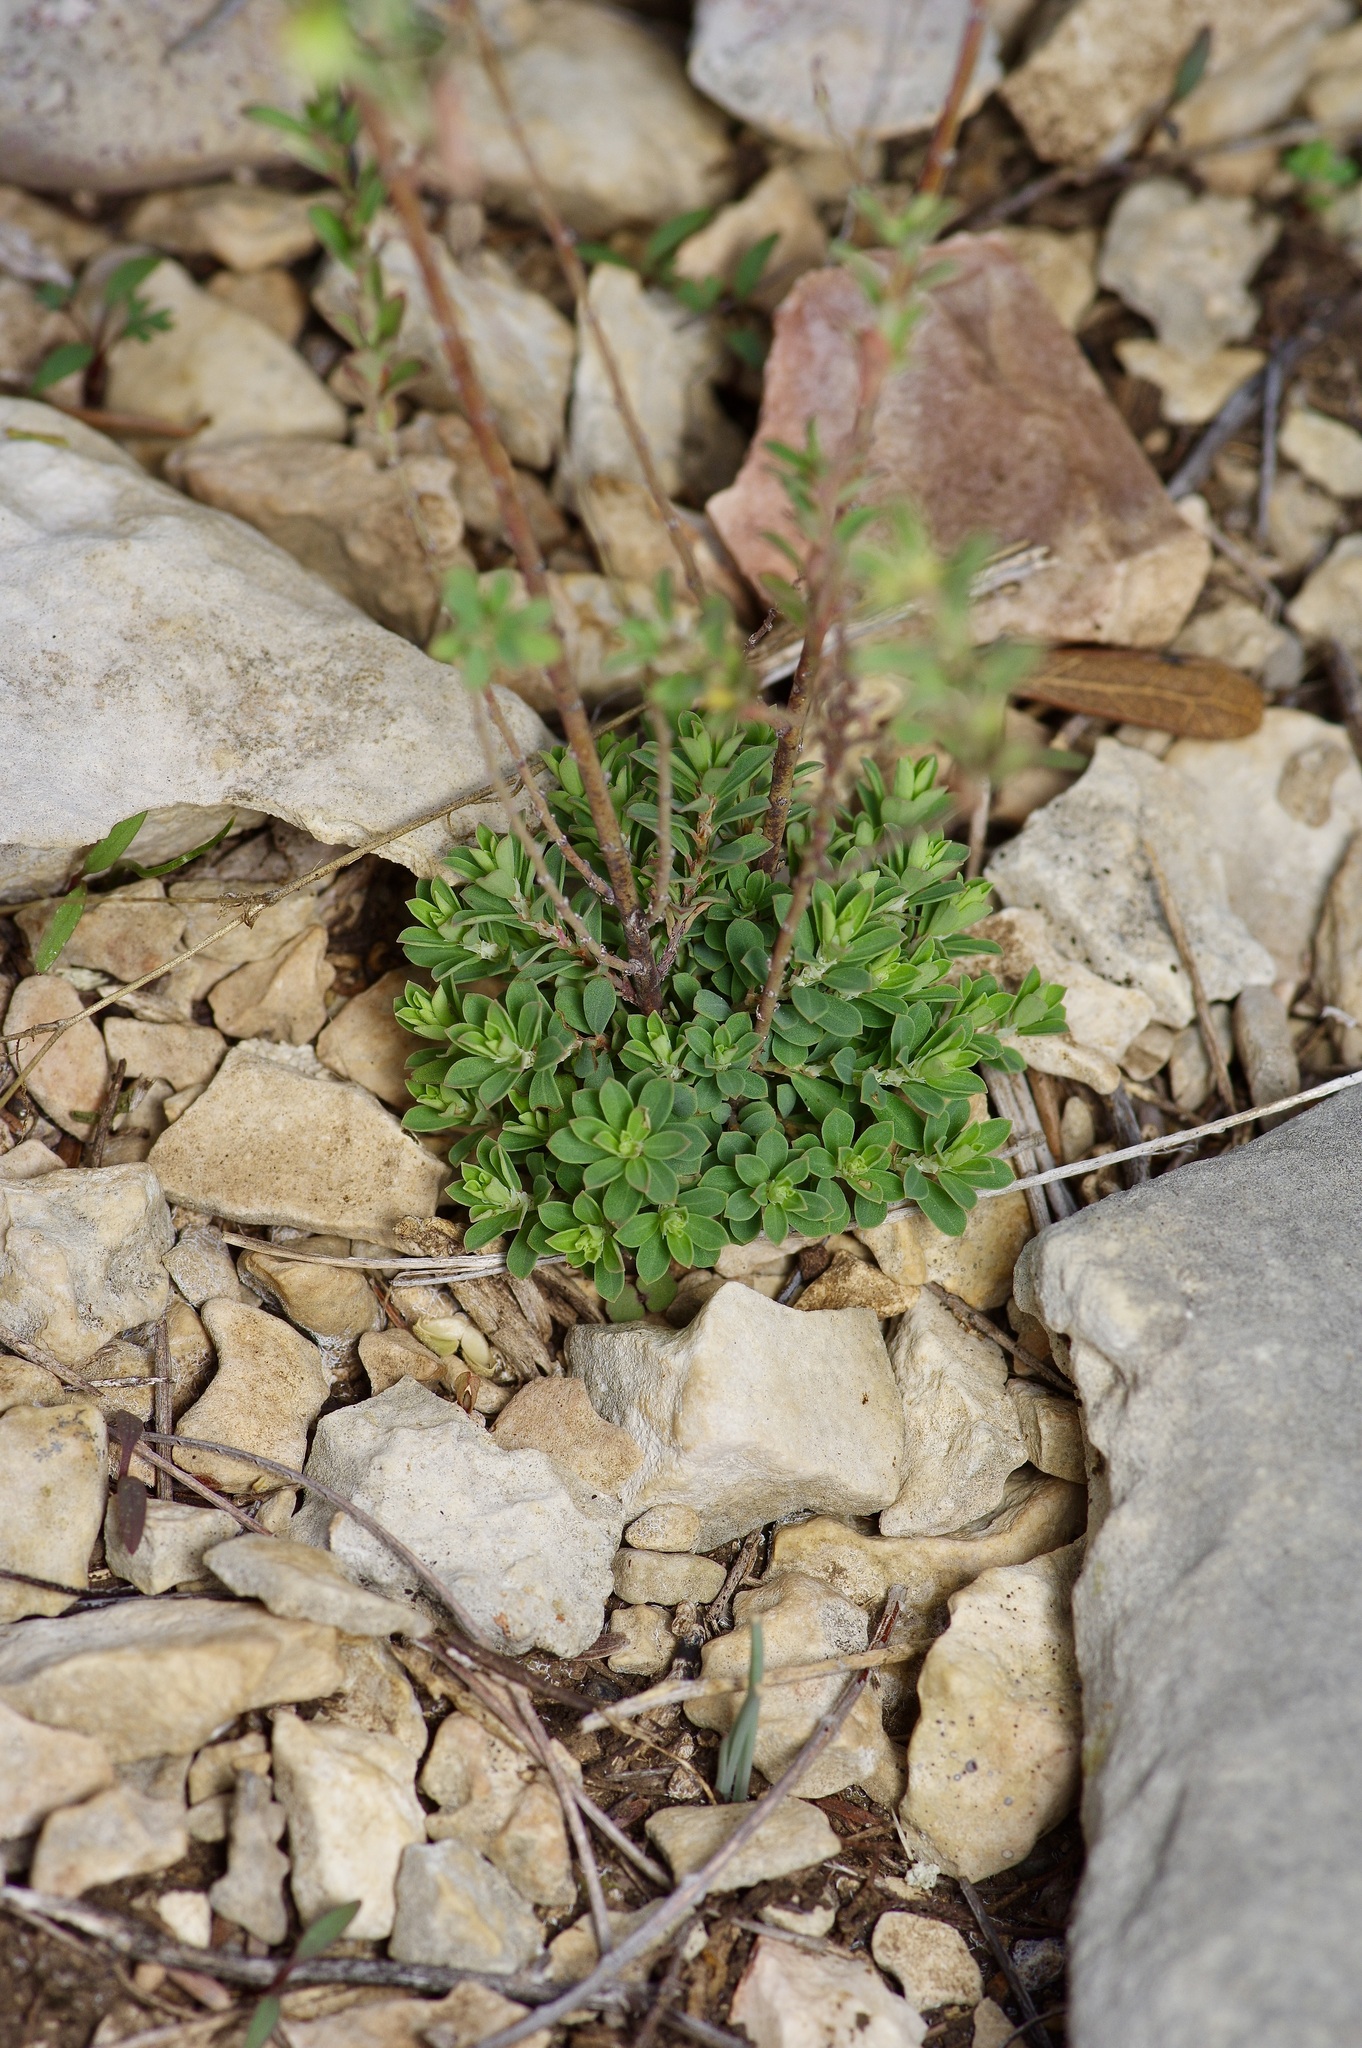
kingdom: Plantae
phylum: Tracheophyta
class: Magnoliopsida
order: Malpighiales
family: Phyllanthaceae
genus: Phyllanthus
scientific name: Phyllanthus polygonoides
